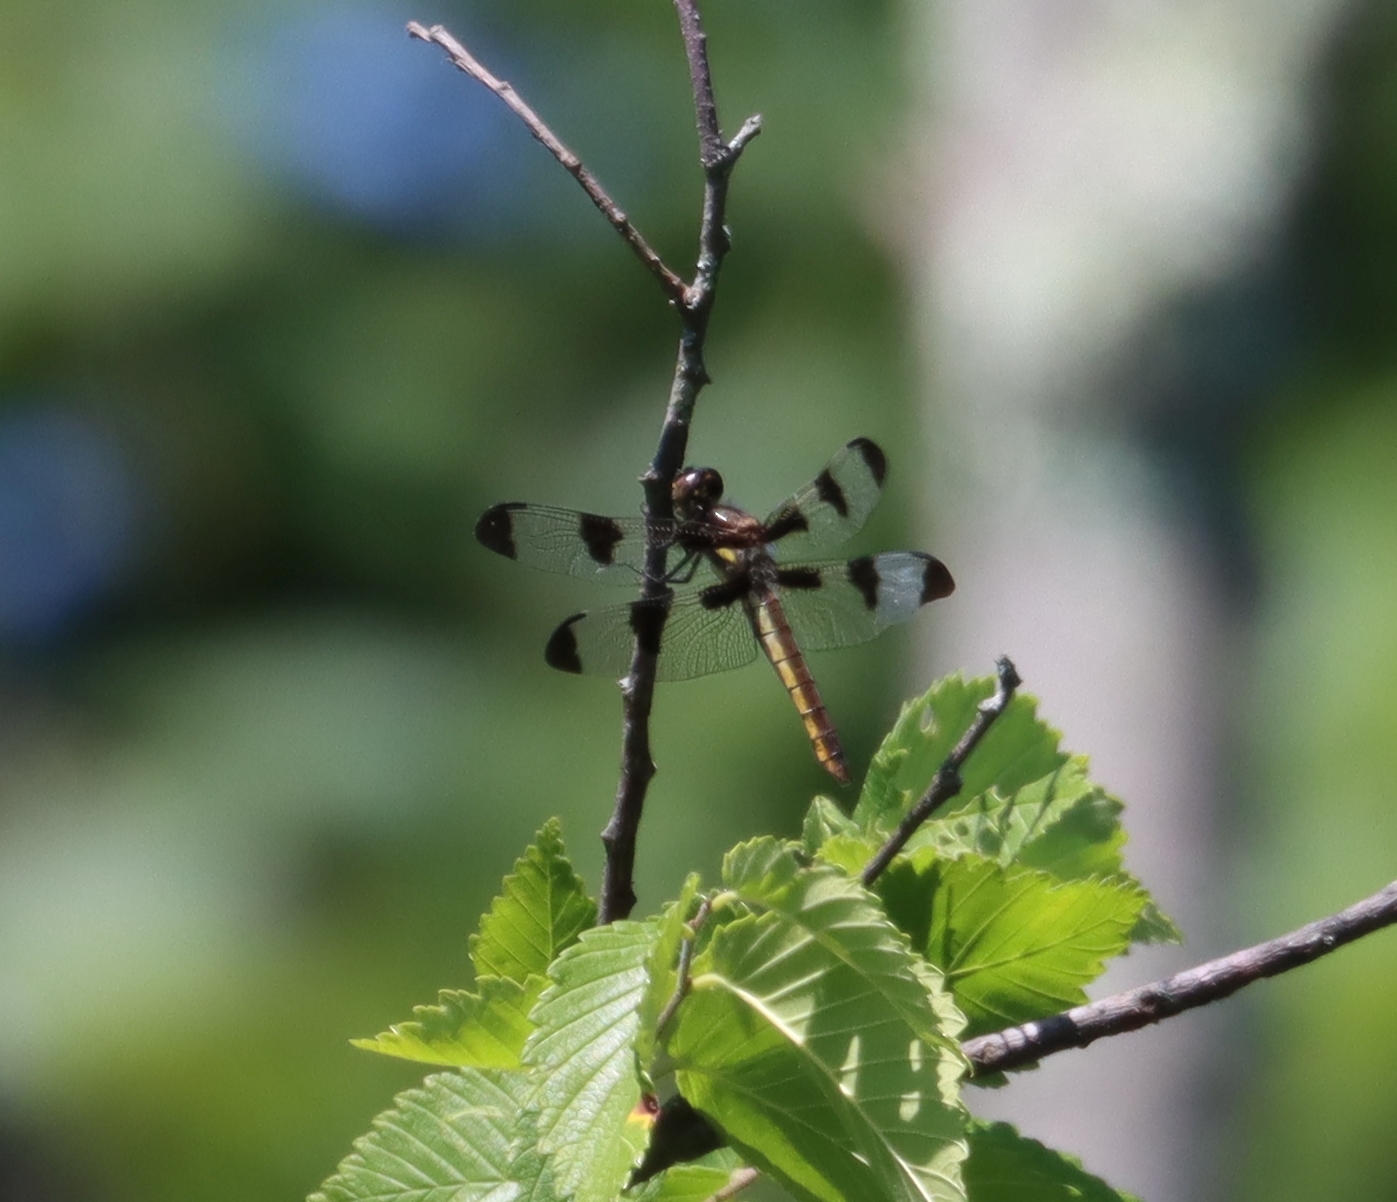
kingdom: Animalia
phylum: Arthropoda
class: Insecta
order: Odonata
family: Libellulidae
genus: Libellula
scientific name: Libellula pulchella
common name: Twelve-spotted skimmer
